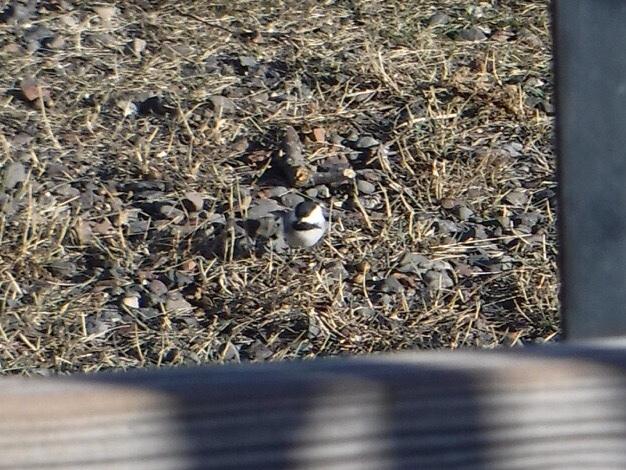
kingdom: Animalia
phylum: Chordata
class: Aves
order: Passeriformes
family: Paridae
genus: Poecile
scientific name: Poecile atricapillus
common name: Black-capped chickadee
